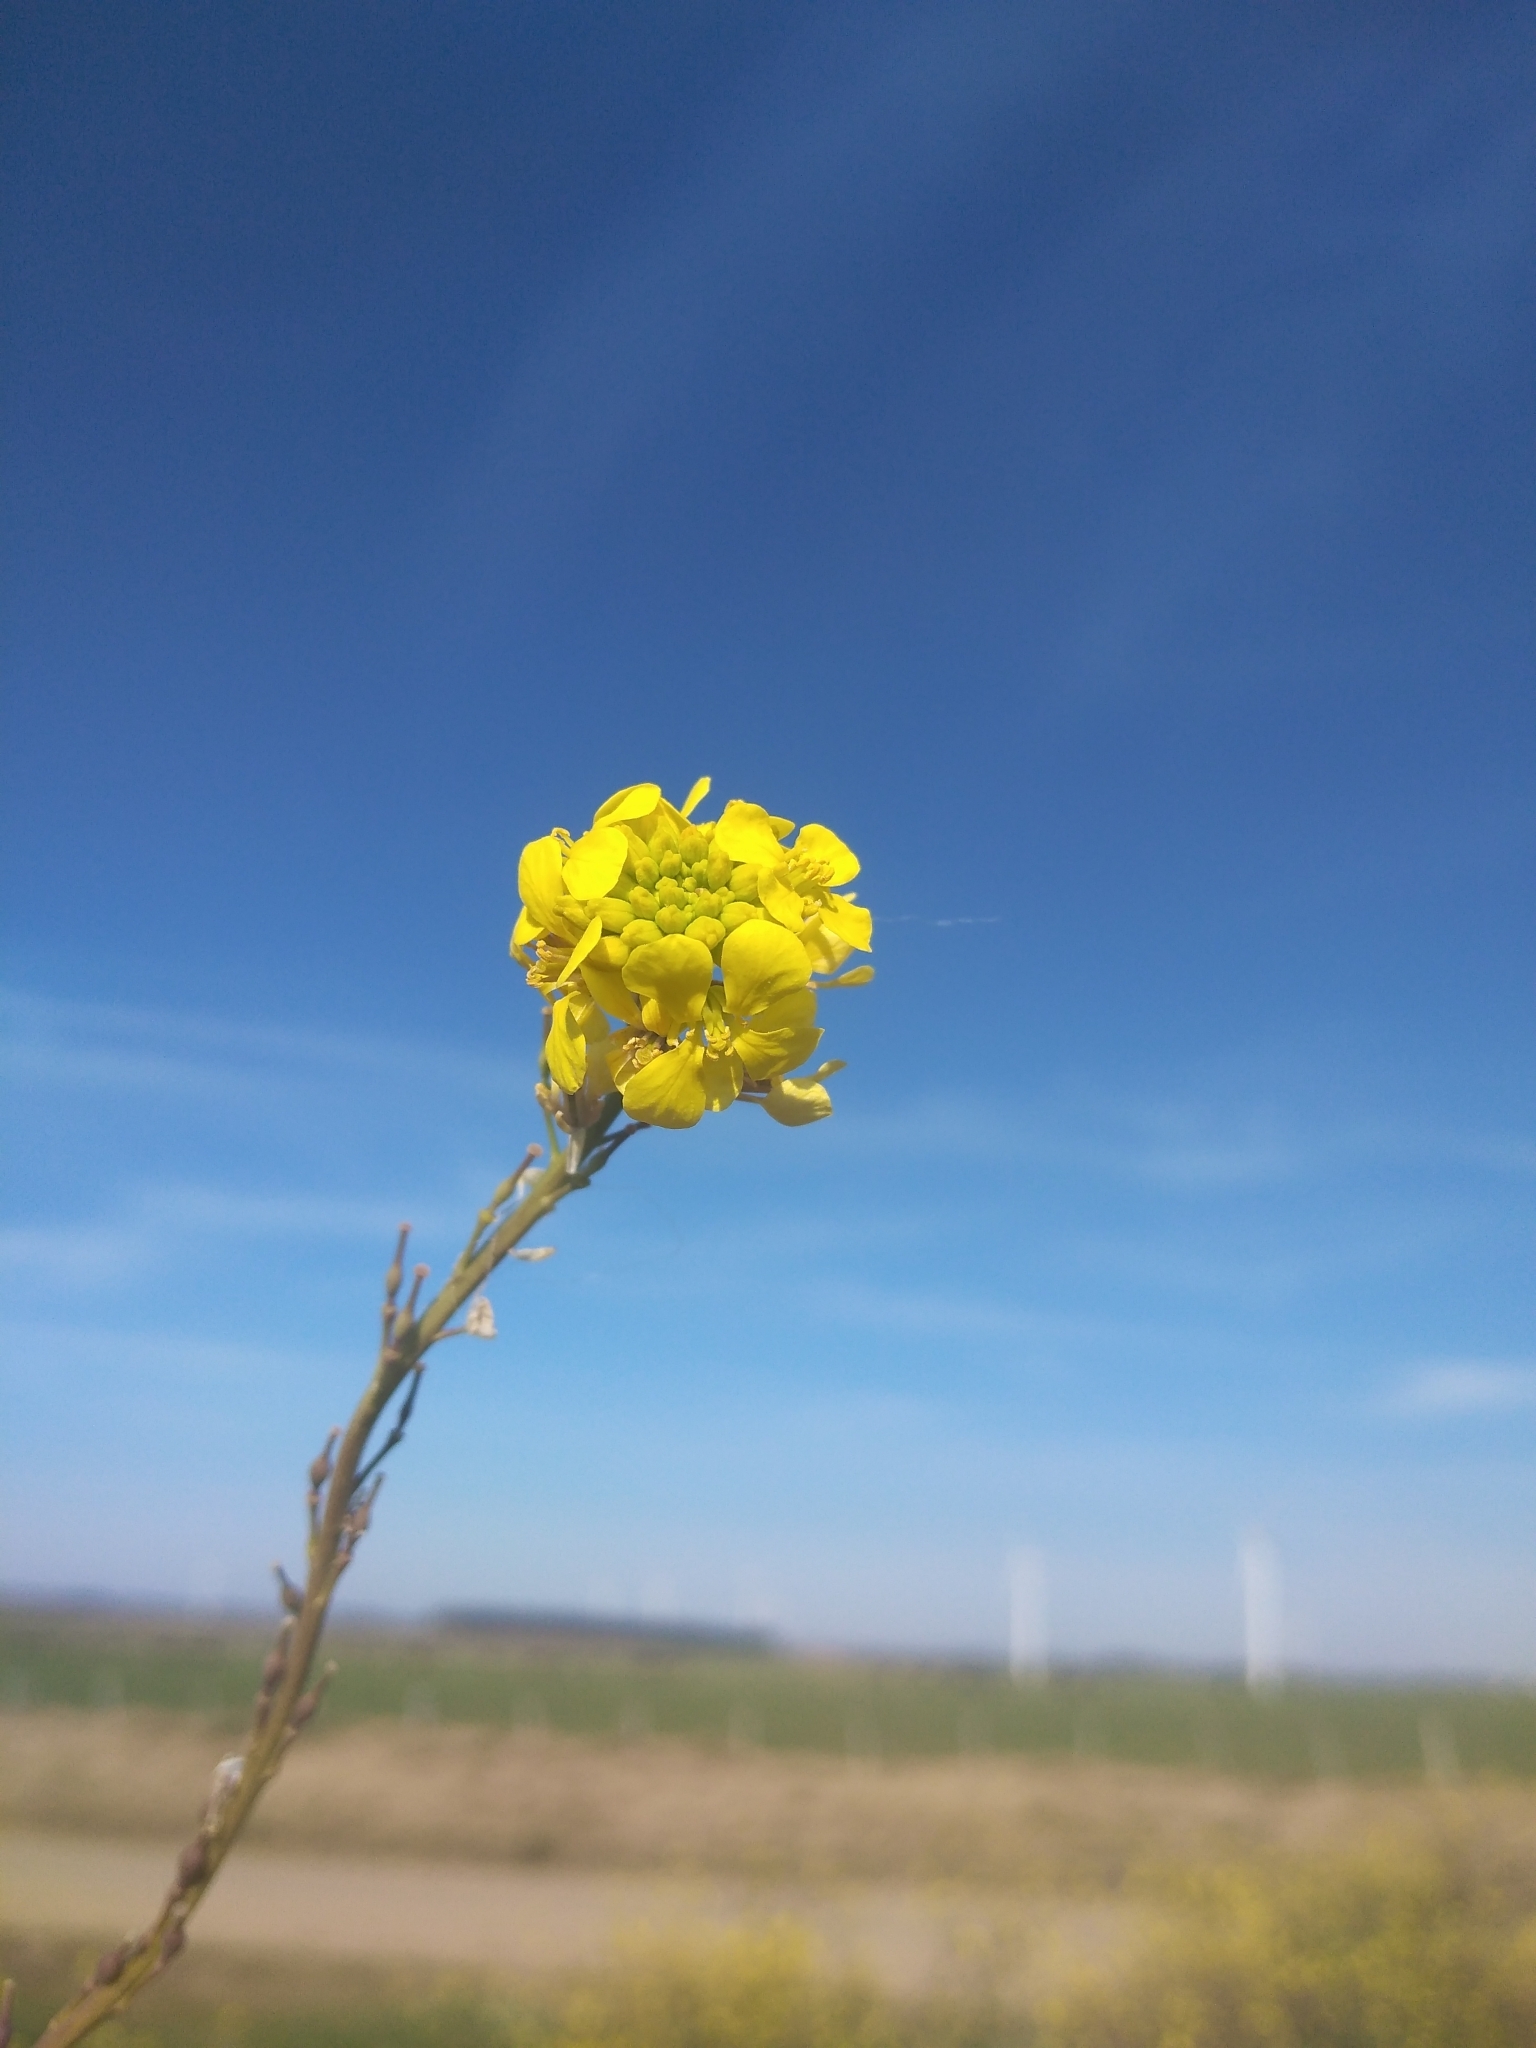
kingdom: Plantae
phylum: Tracheophyta
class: Magnoliopsida
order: Brassicales
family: Brassicaceae
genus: Rapistrum
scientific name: Rapistrum rugosum
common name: Annual bastardcabbage
